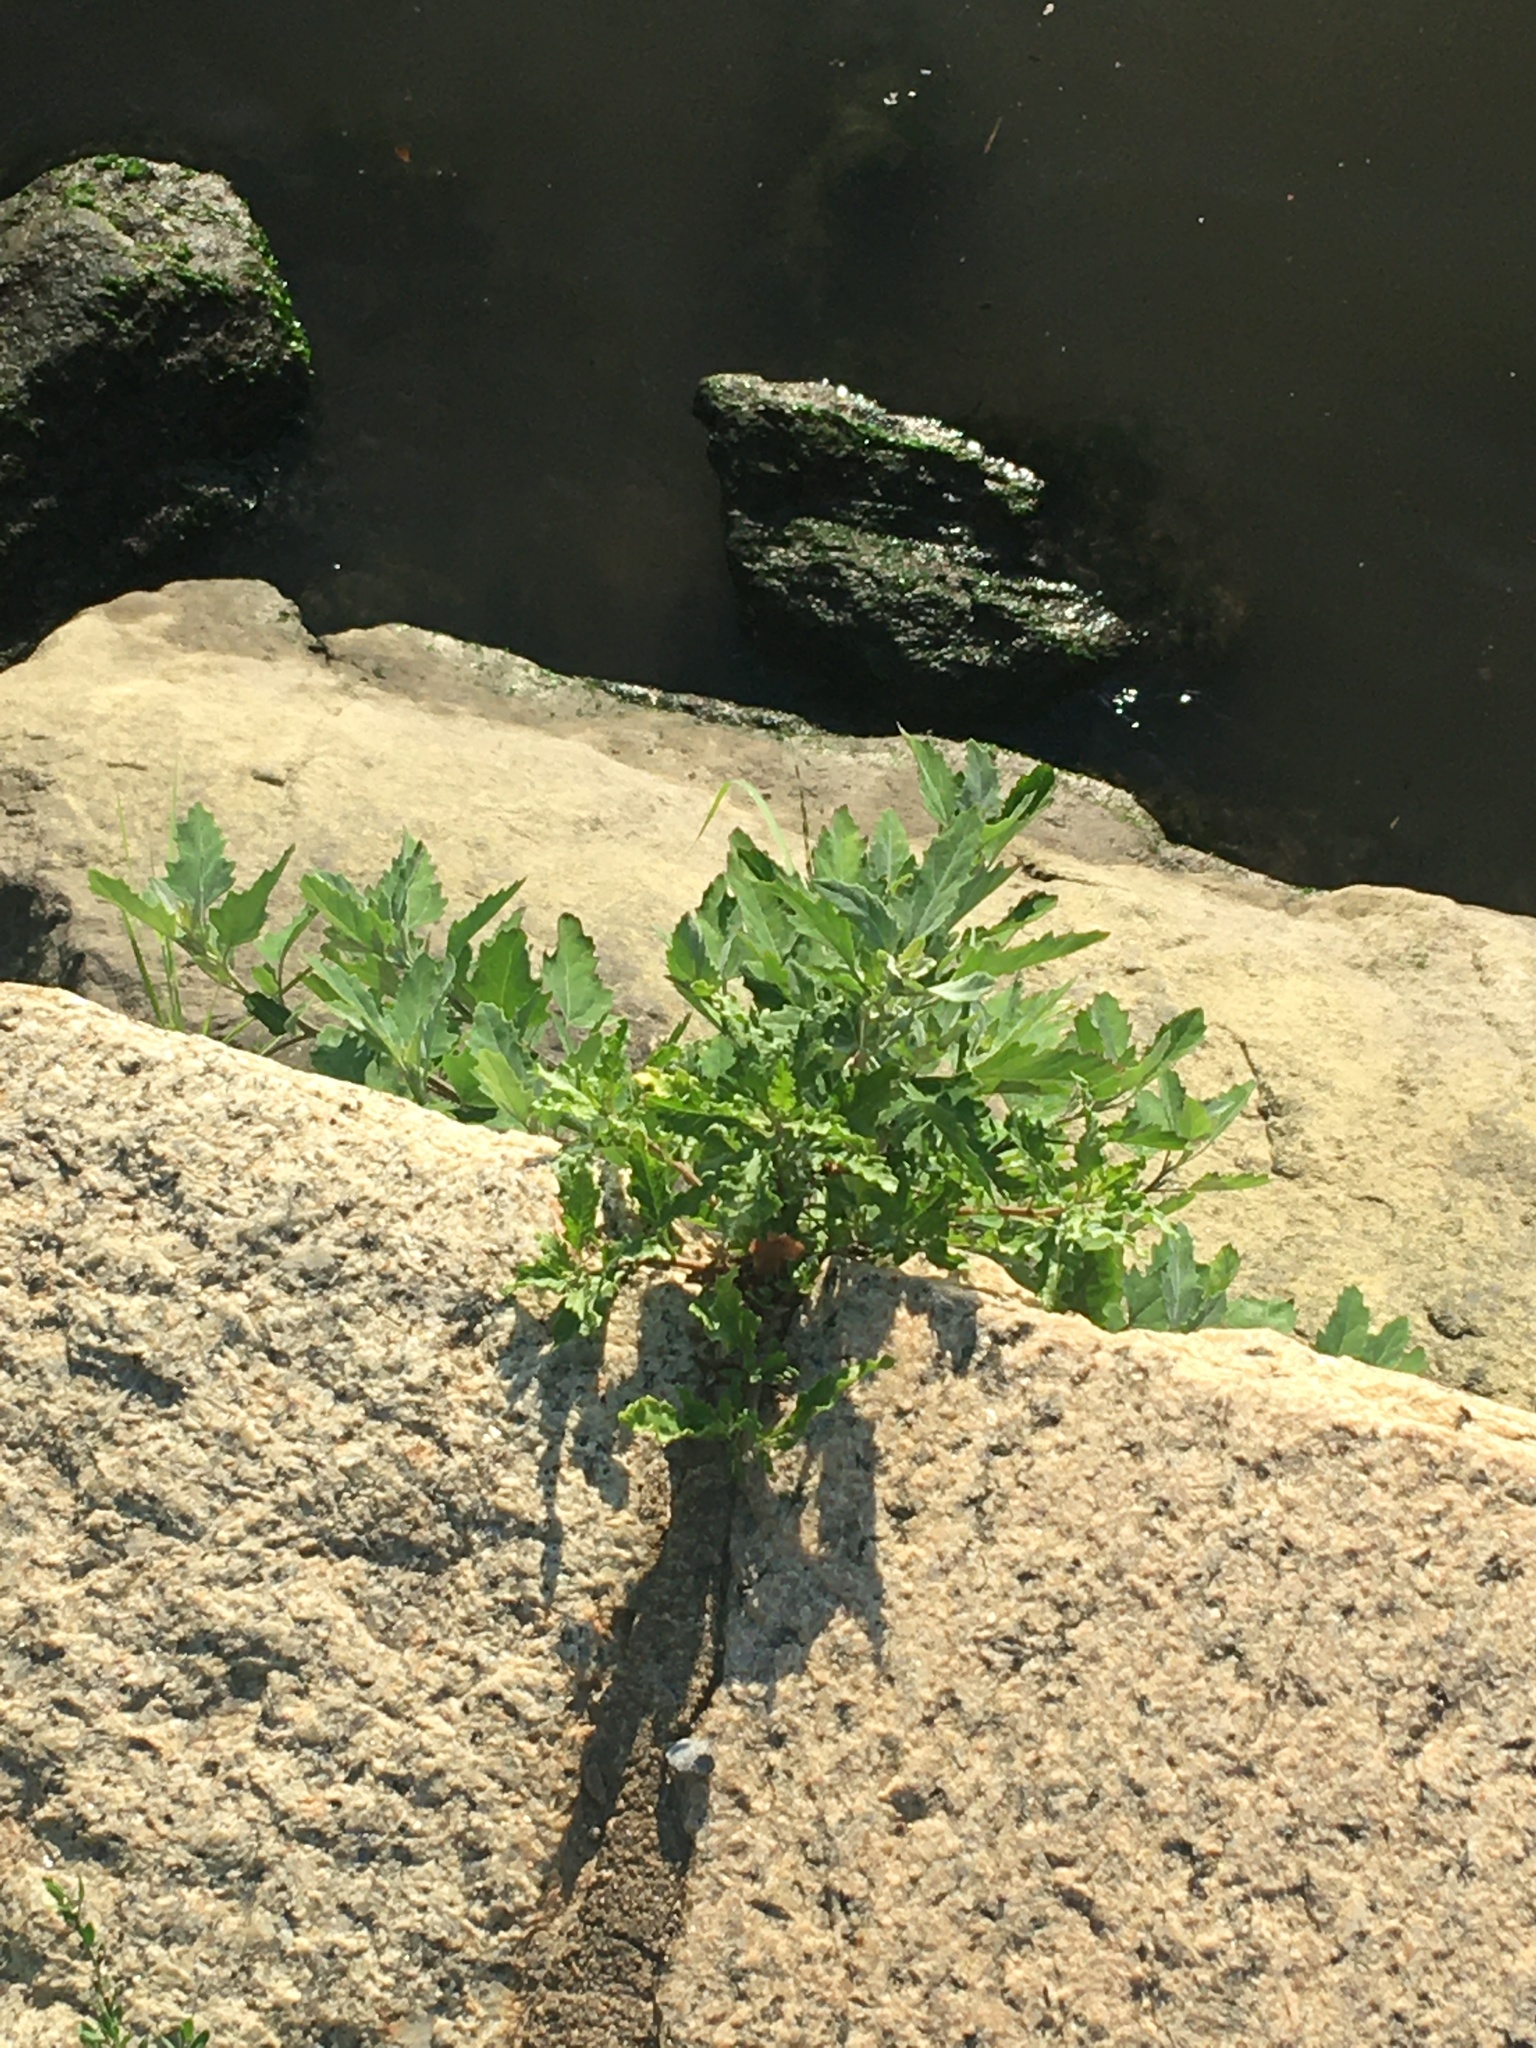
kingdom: Plantae
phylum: Tracheophyta
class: Magnoliopsida
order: Caryophyllales
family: Amaranthaceae
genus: Chenopodium
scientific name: Chenopodium album
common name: Fat-hen
